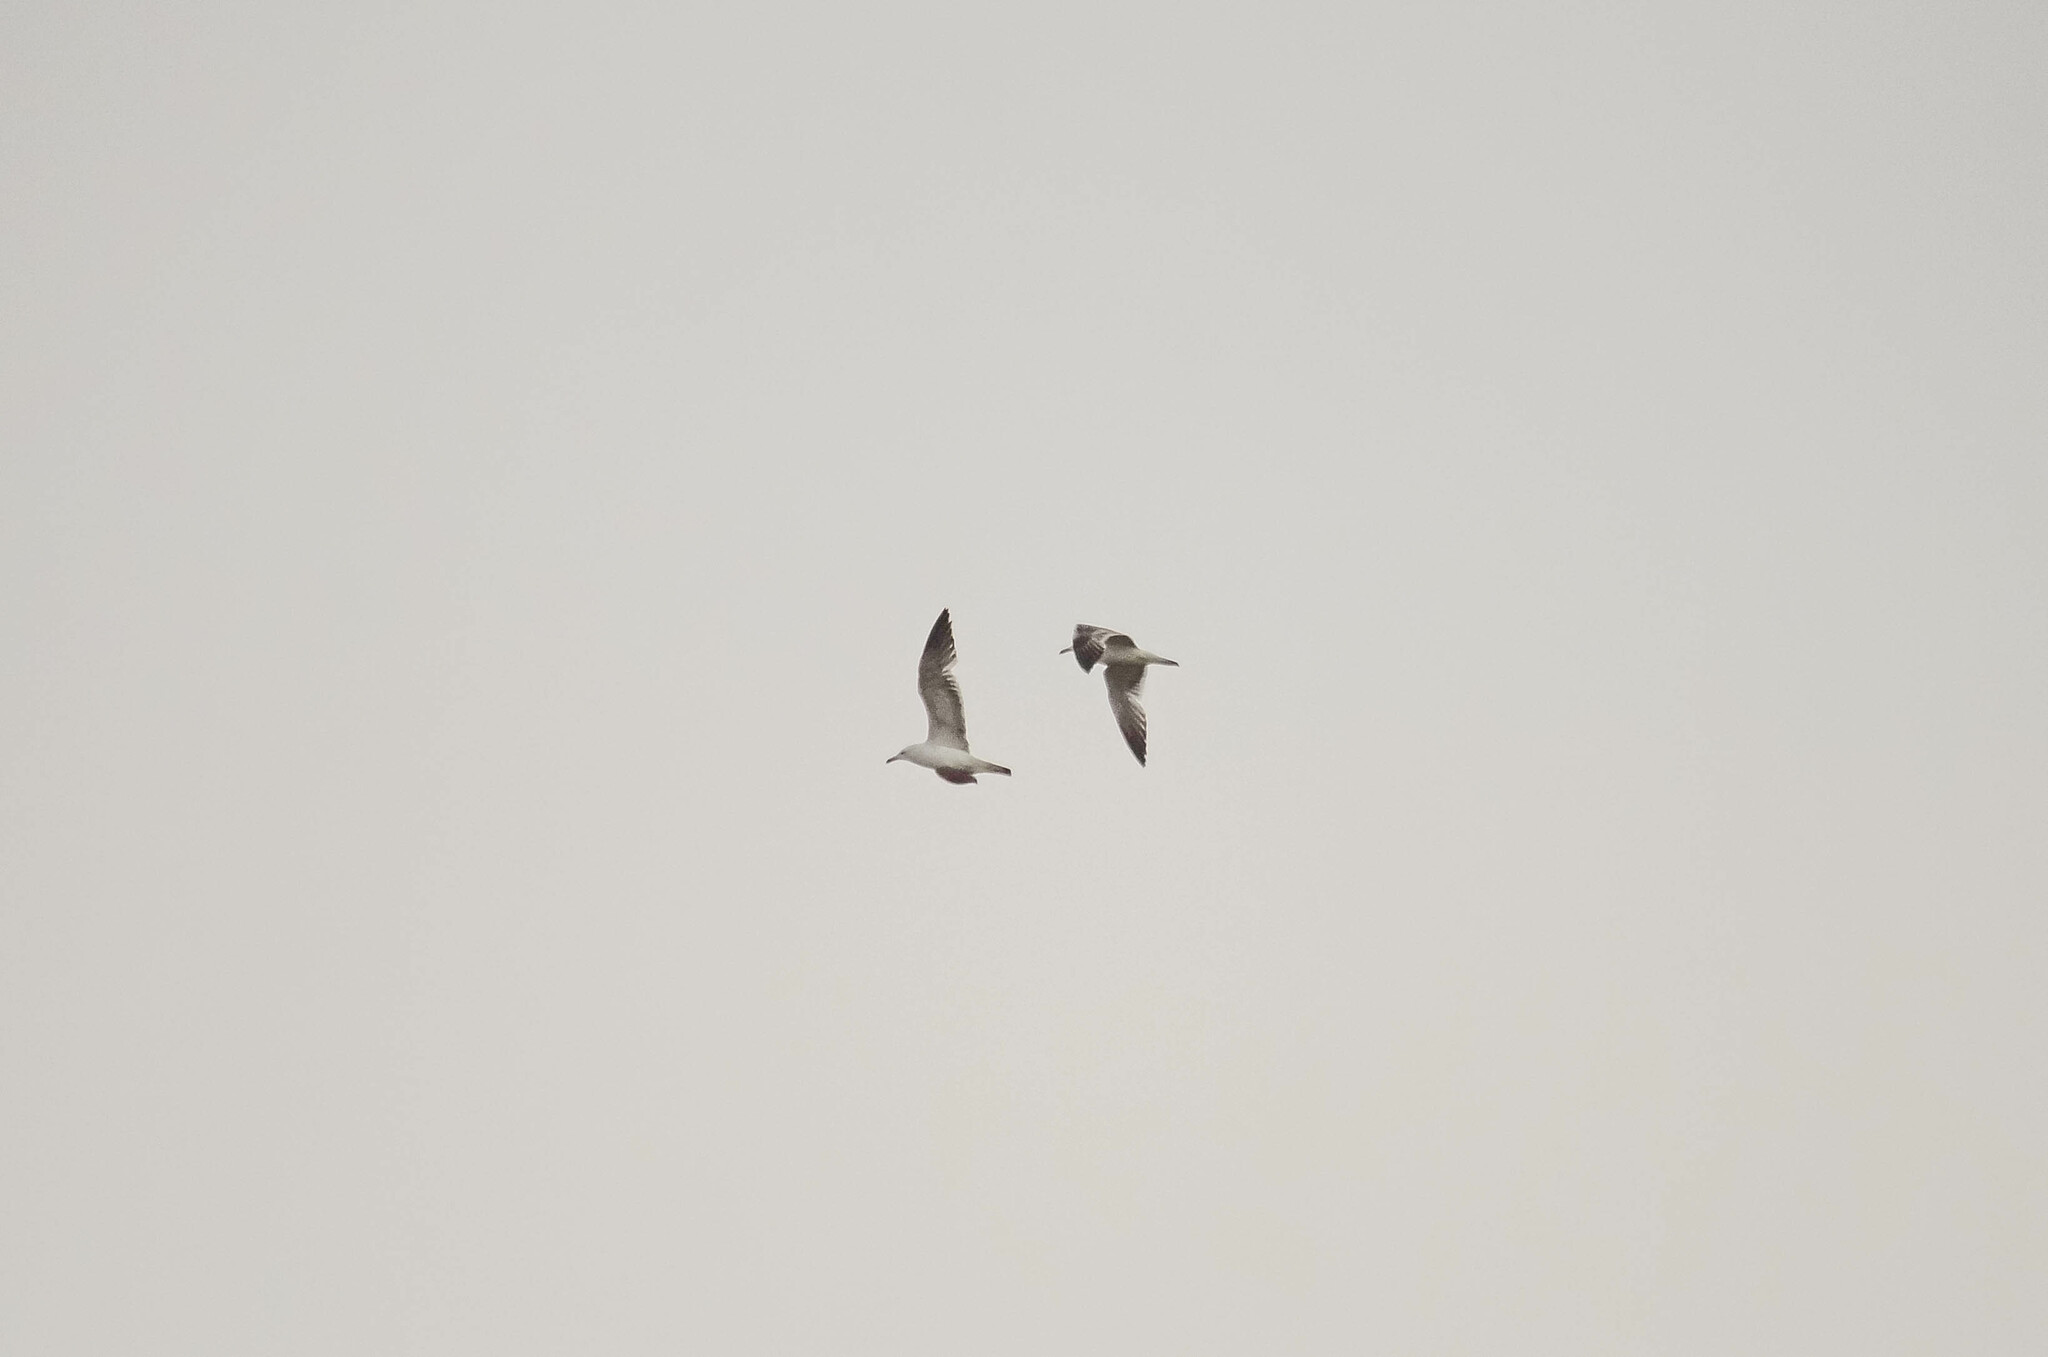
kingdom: Animalia
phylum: Chordata
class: Aves
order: Charadriiformes
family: Laridae
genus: Larus
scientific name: Larus fuscus
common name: Lesser black-backed gull
